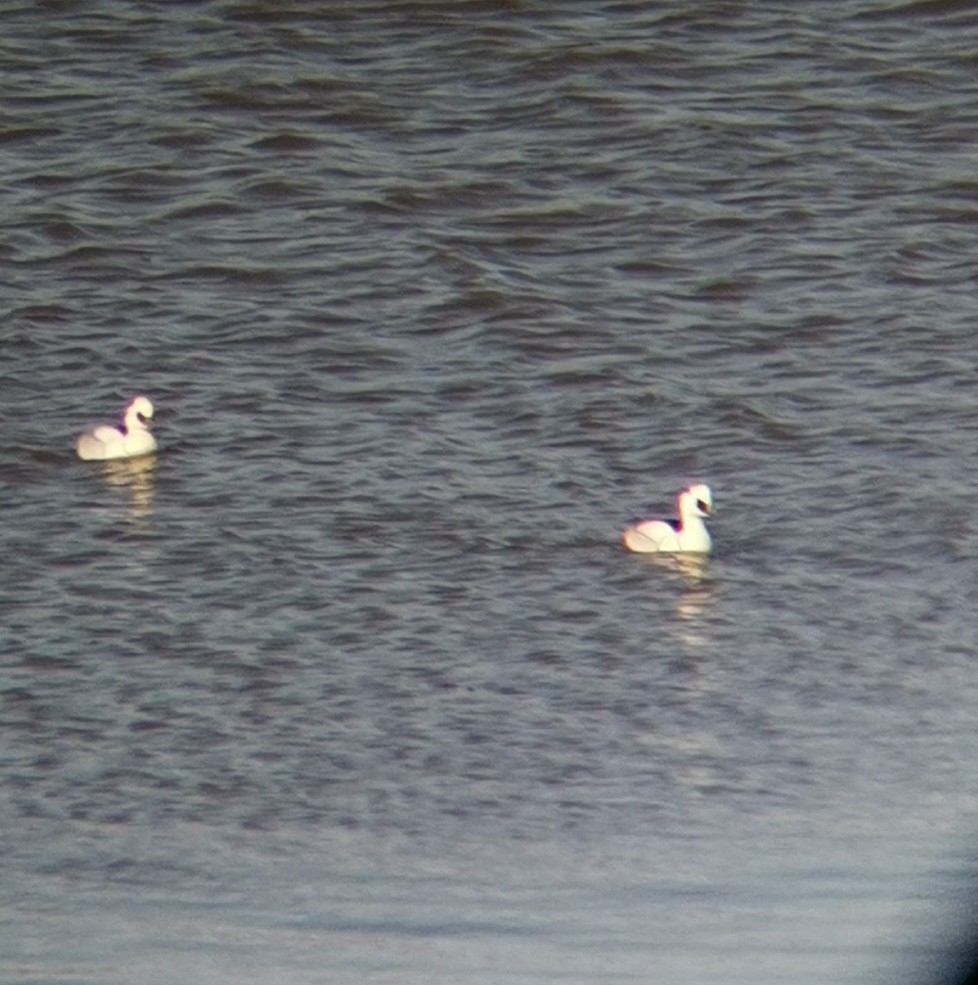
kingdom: Animalia
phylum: Chordata
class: Aves
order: Anseriformes
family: Anatidae
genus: Mergellus
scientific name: Mergellus albellus
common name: Smew
